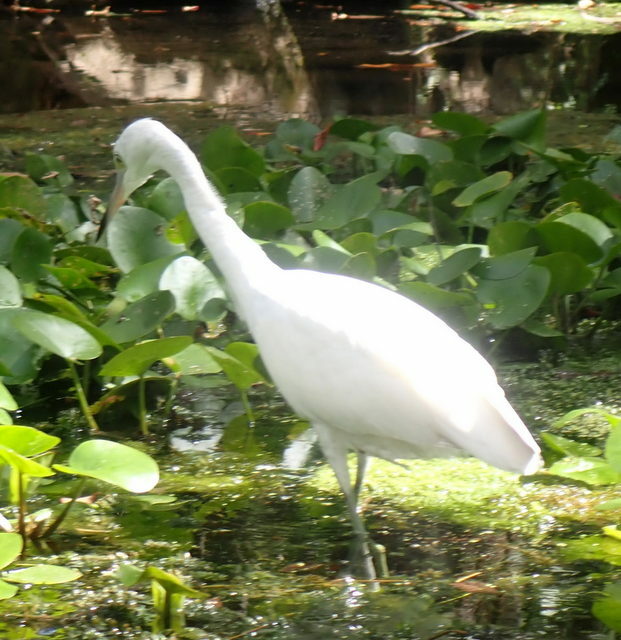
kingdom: Animalia
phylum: Chordata
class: Aves
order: Pelecaniformes
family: Ardeidae
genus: Egretta
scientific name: Egretta caerulea
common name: Little blue heron
